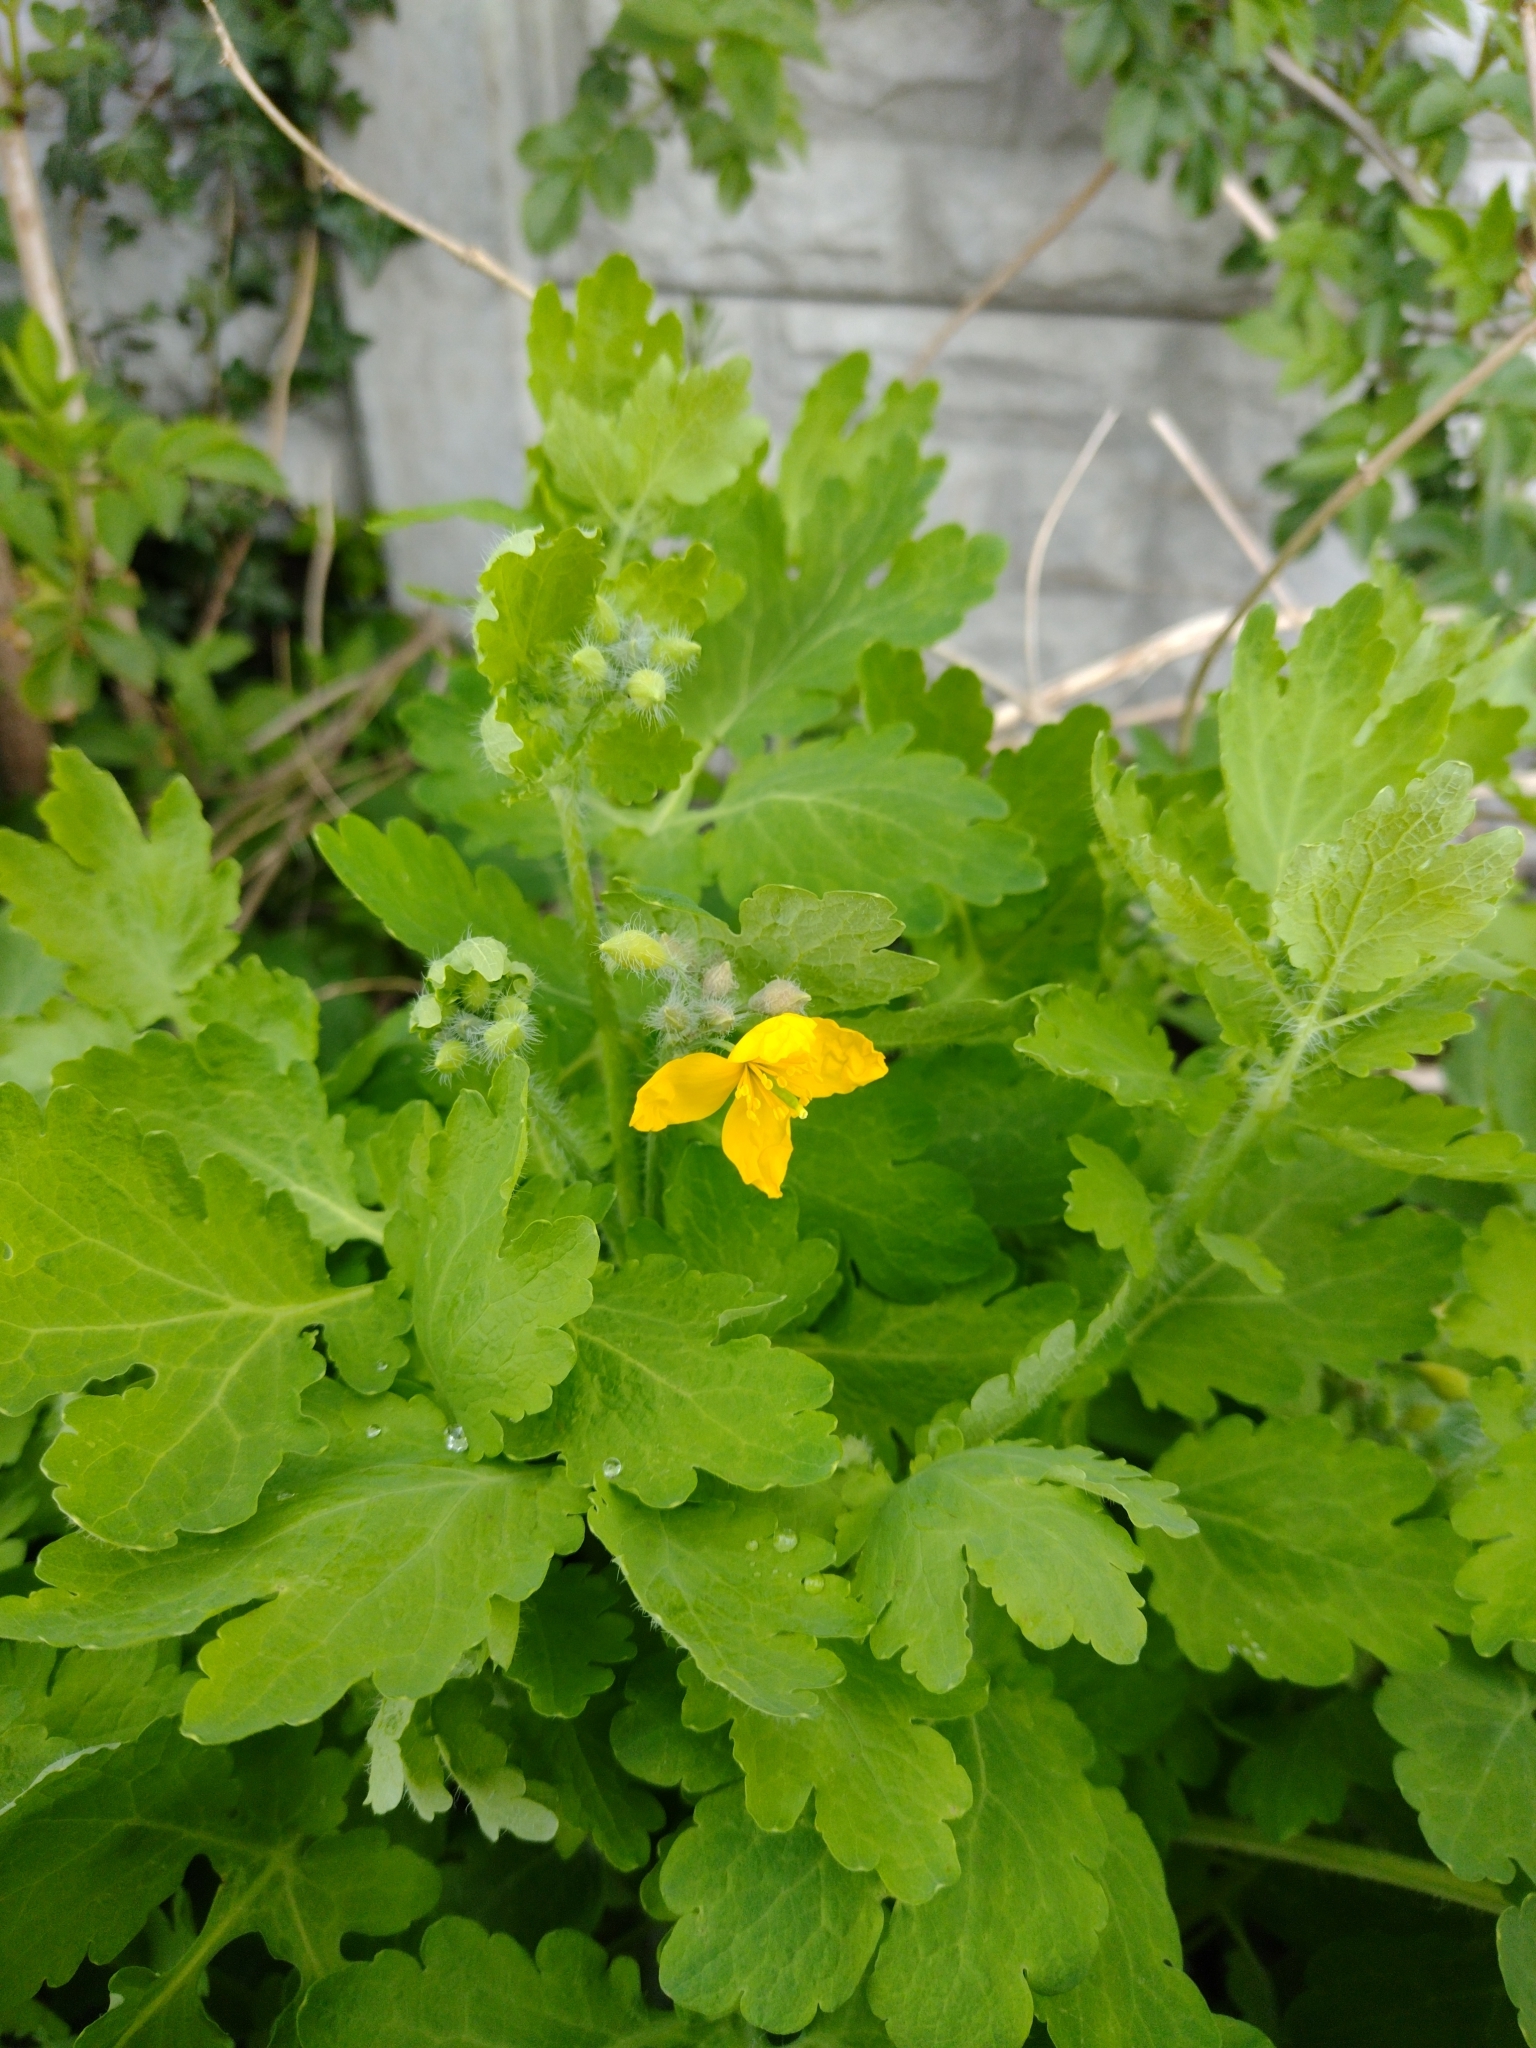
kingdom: Plantae
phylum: Tracheophyta
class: Magnoliopsida
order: Ranunculales
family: Papaveraceae
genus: Chelidonium
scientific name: Chelidonium majus
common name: Greater celandine
